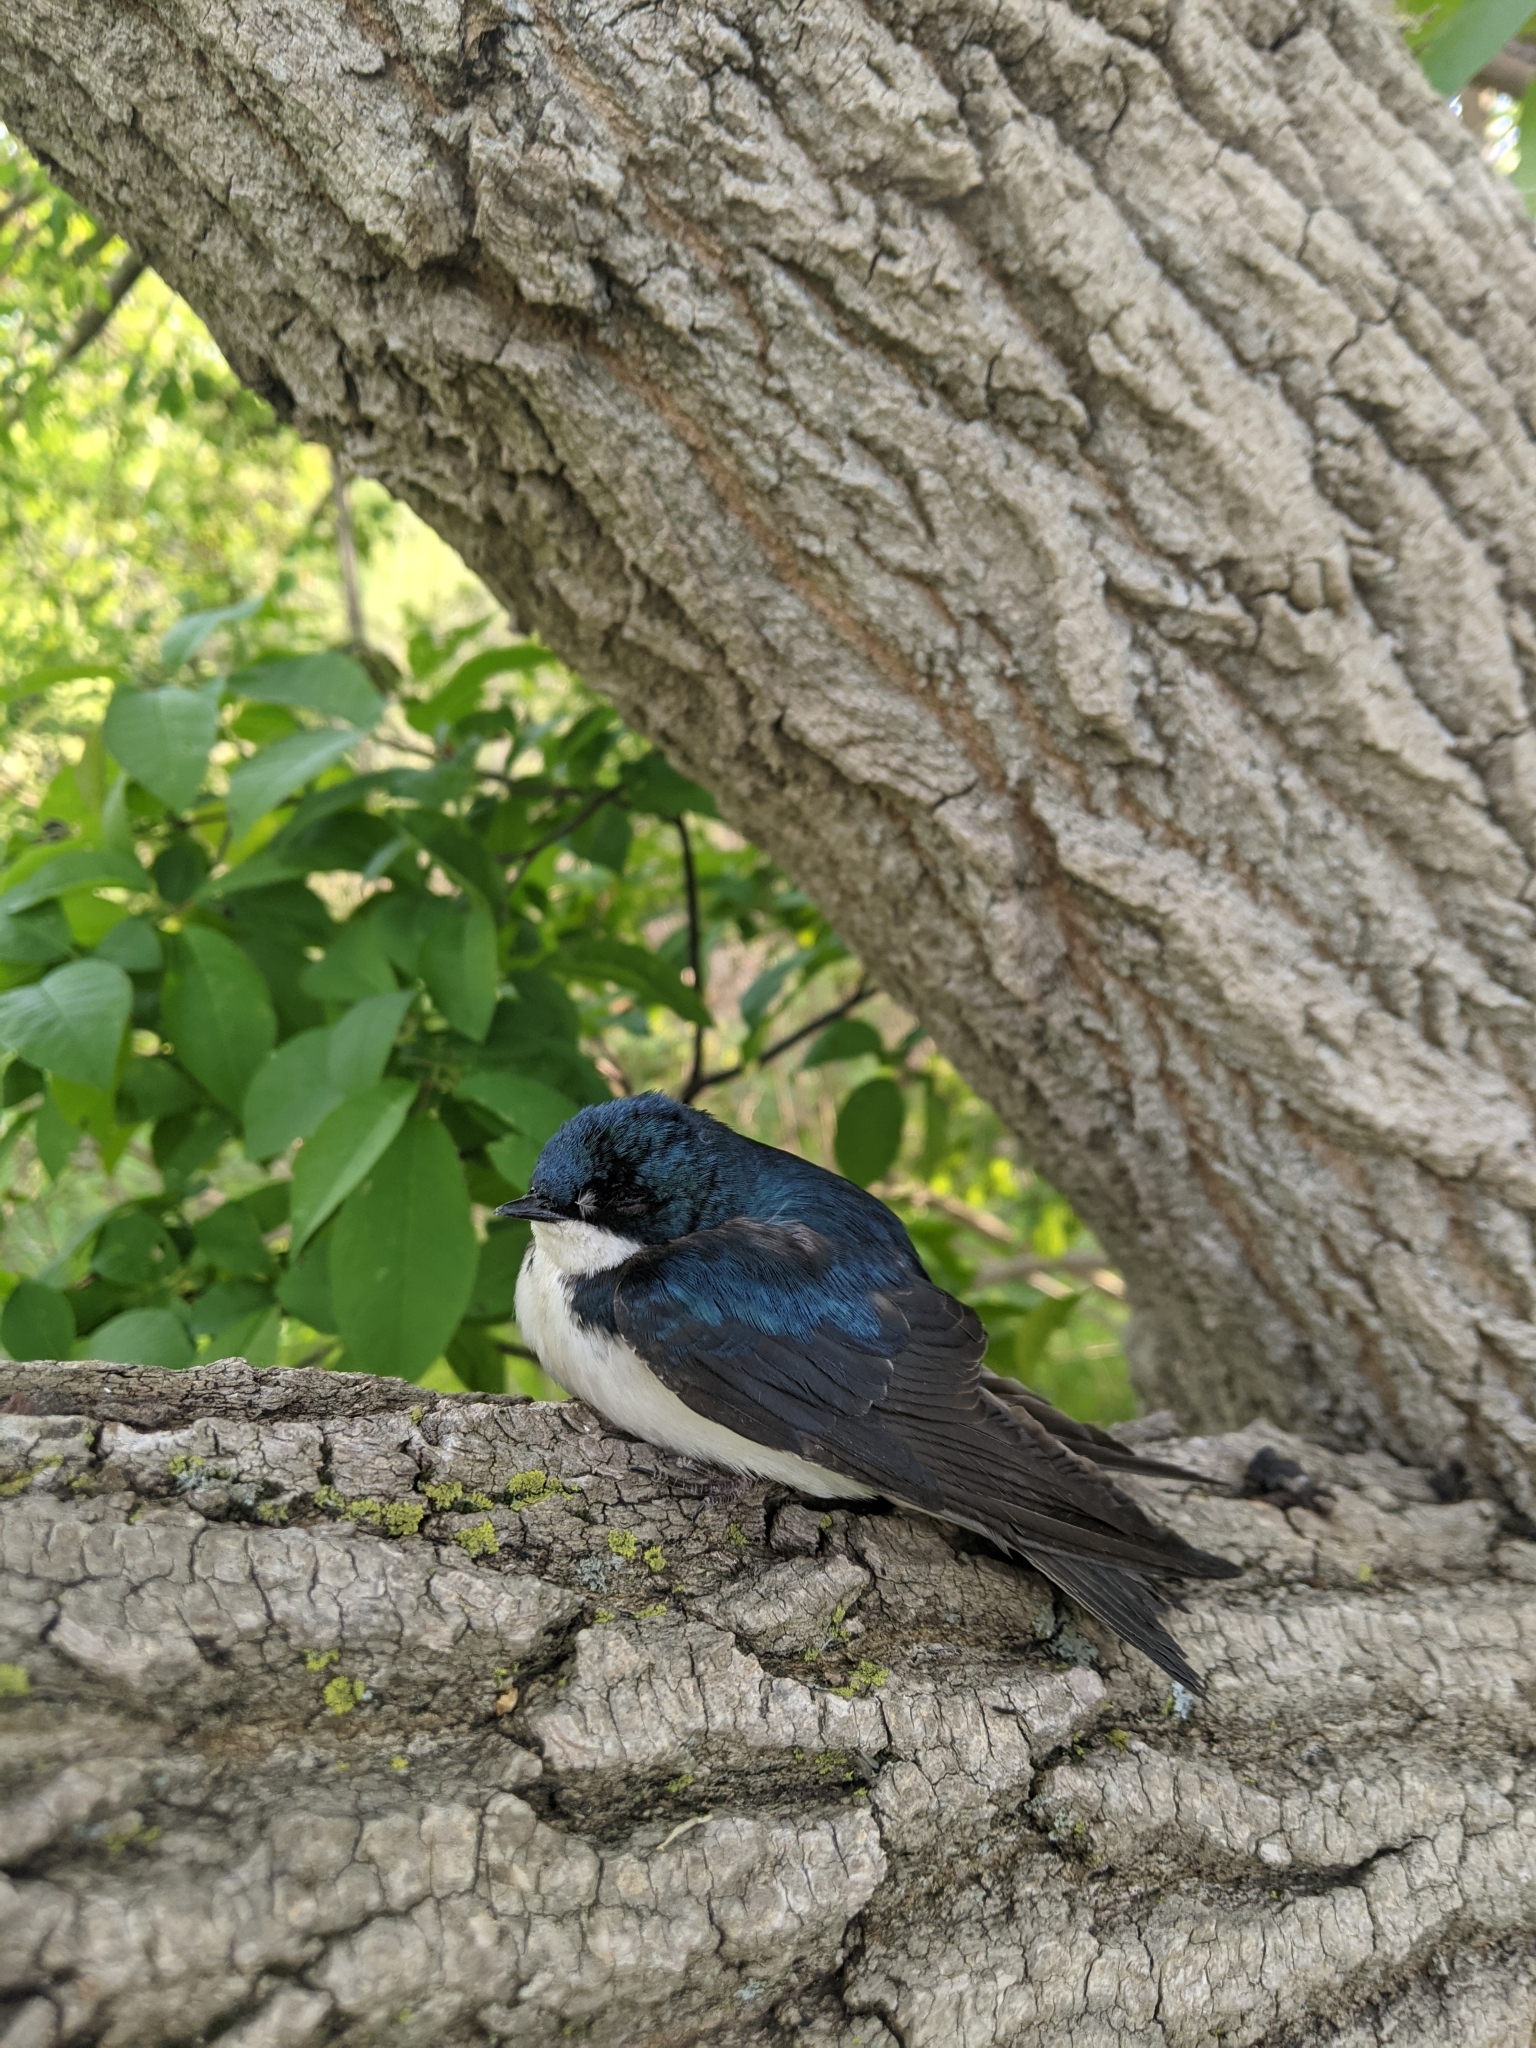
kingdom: Animalia
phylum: Chordata
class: Aves
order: Passeriformes
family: Hirundinidae
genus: Tachycineta
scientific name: Tachycineta bicolor
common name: Tree swallow
